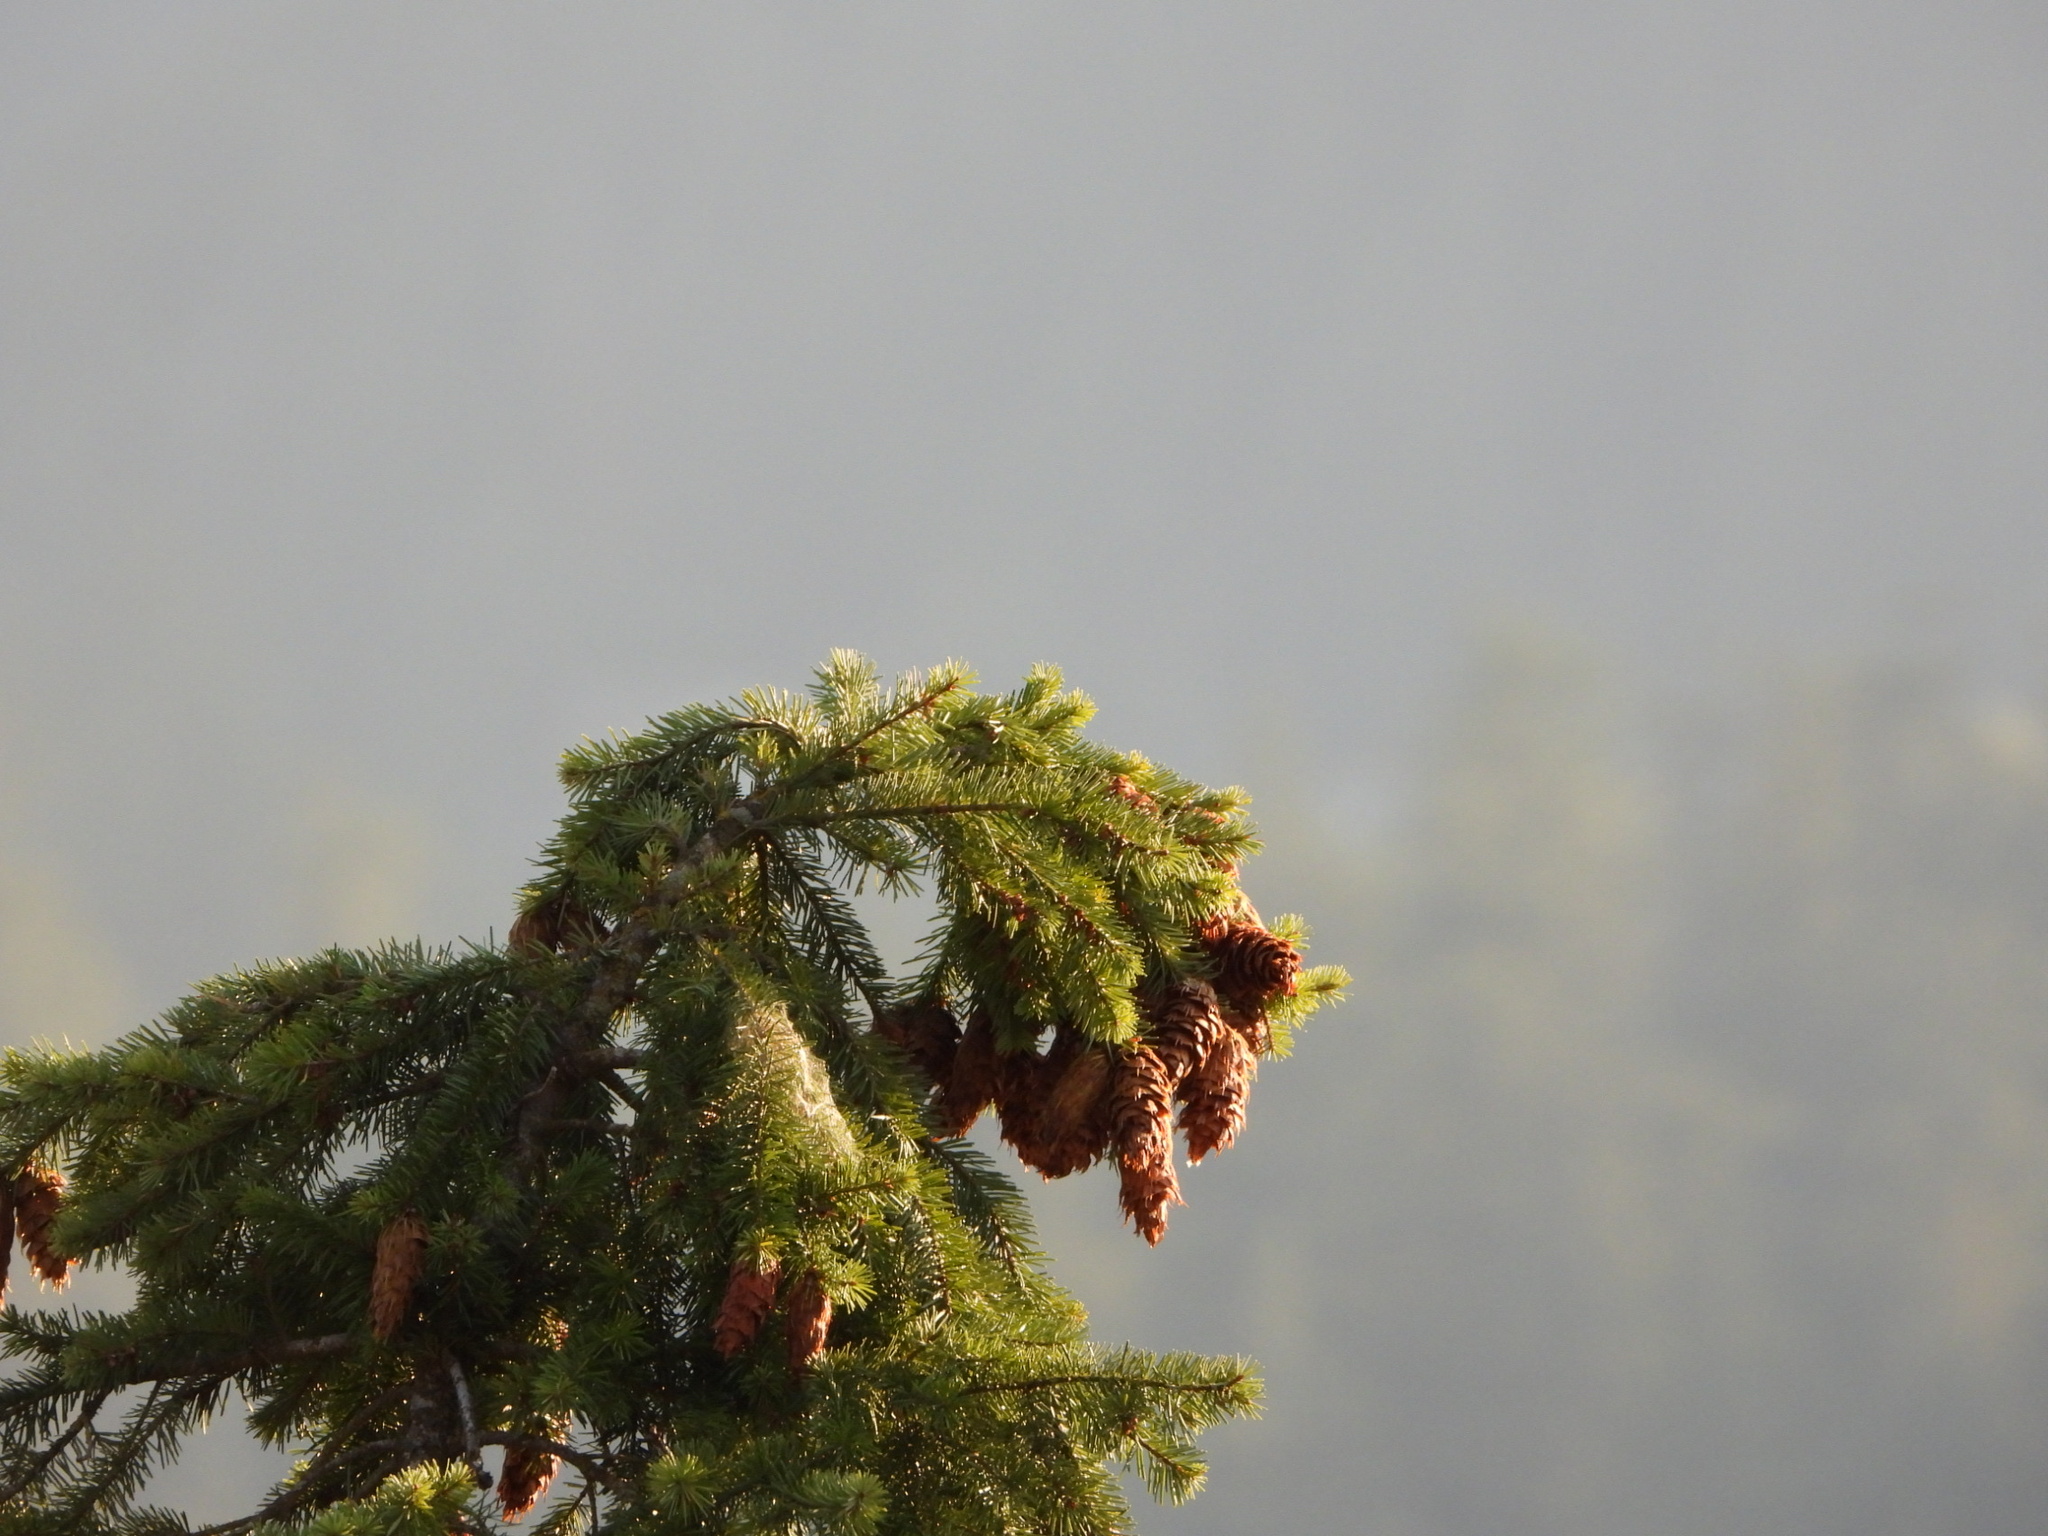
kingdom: Plantae
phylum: Tracheophyta
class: Pinopsida
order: Pinales
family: Pinaceae
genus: Pseudotsuga
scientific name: Pseudotsuga menziesii
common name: Douglas fir
